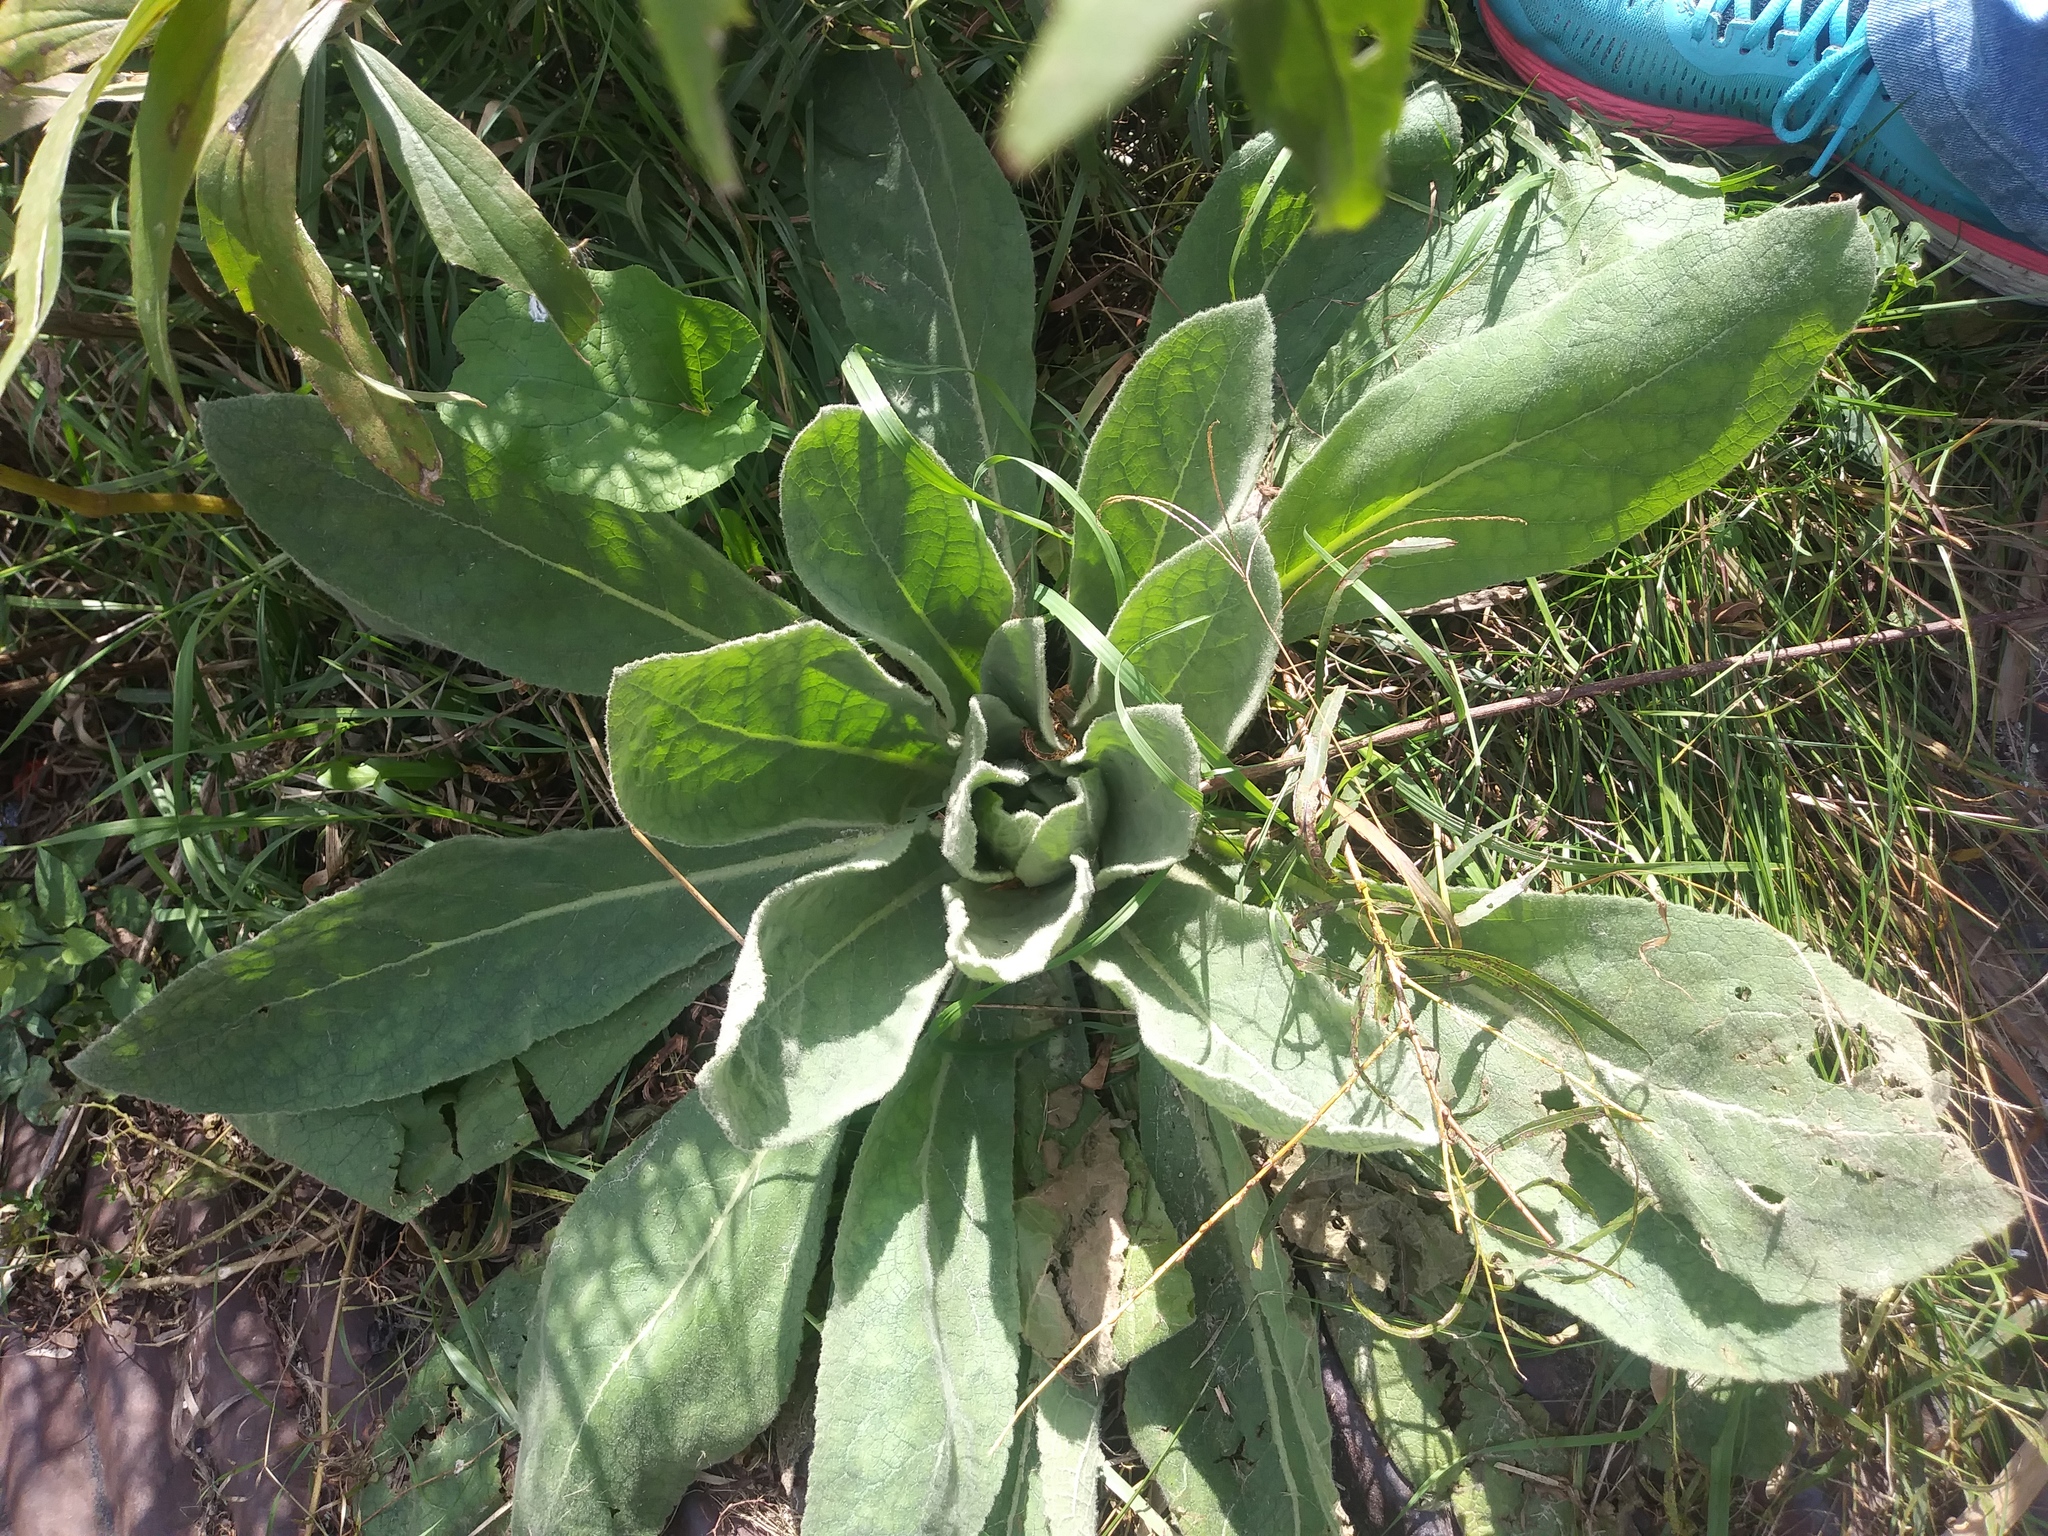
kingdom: Plantae
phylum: Tracheophyta
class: Magnoliopsida
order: Lamiales
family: Scrophulariaceae
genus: Verbascum
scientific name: Verbascum thapsus
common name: Common mullein
